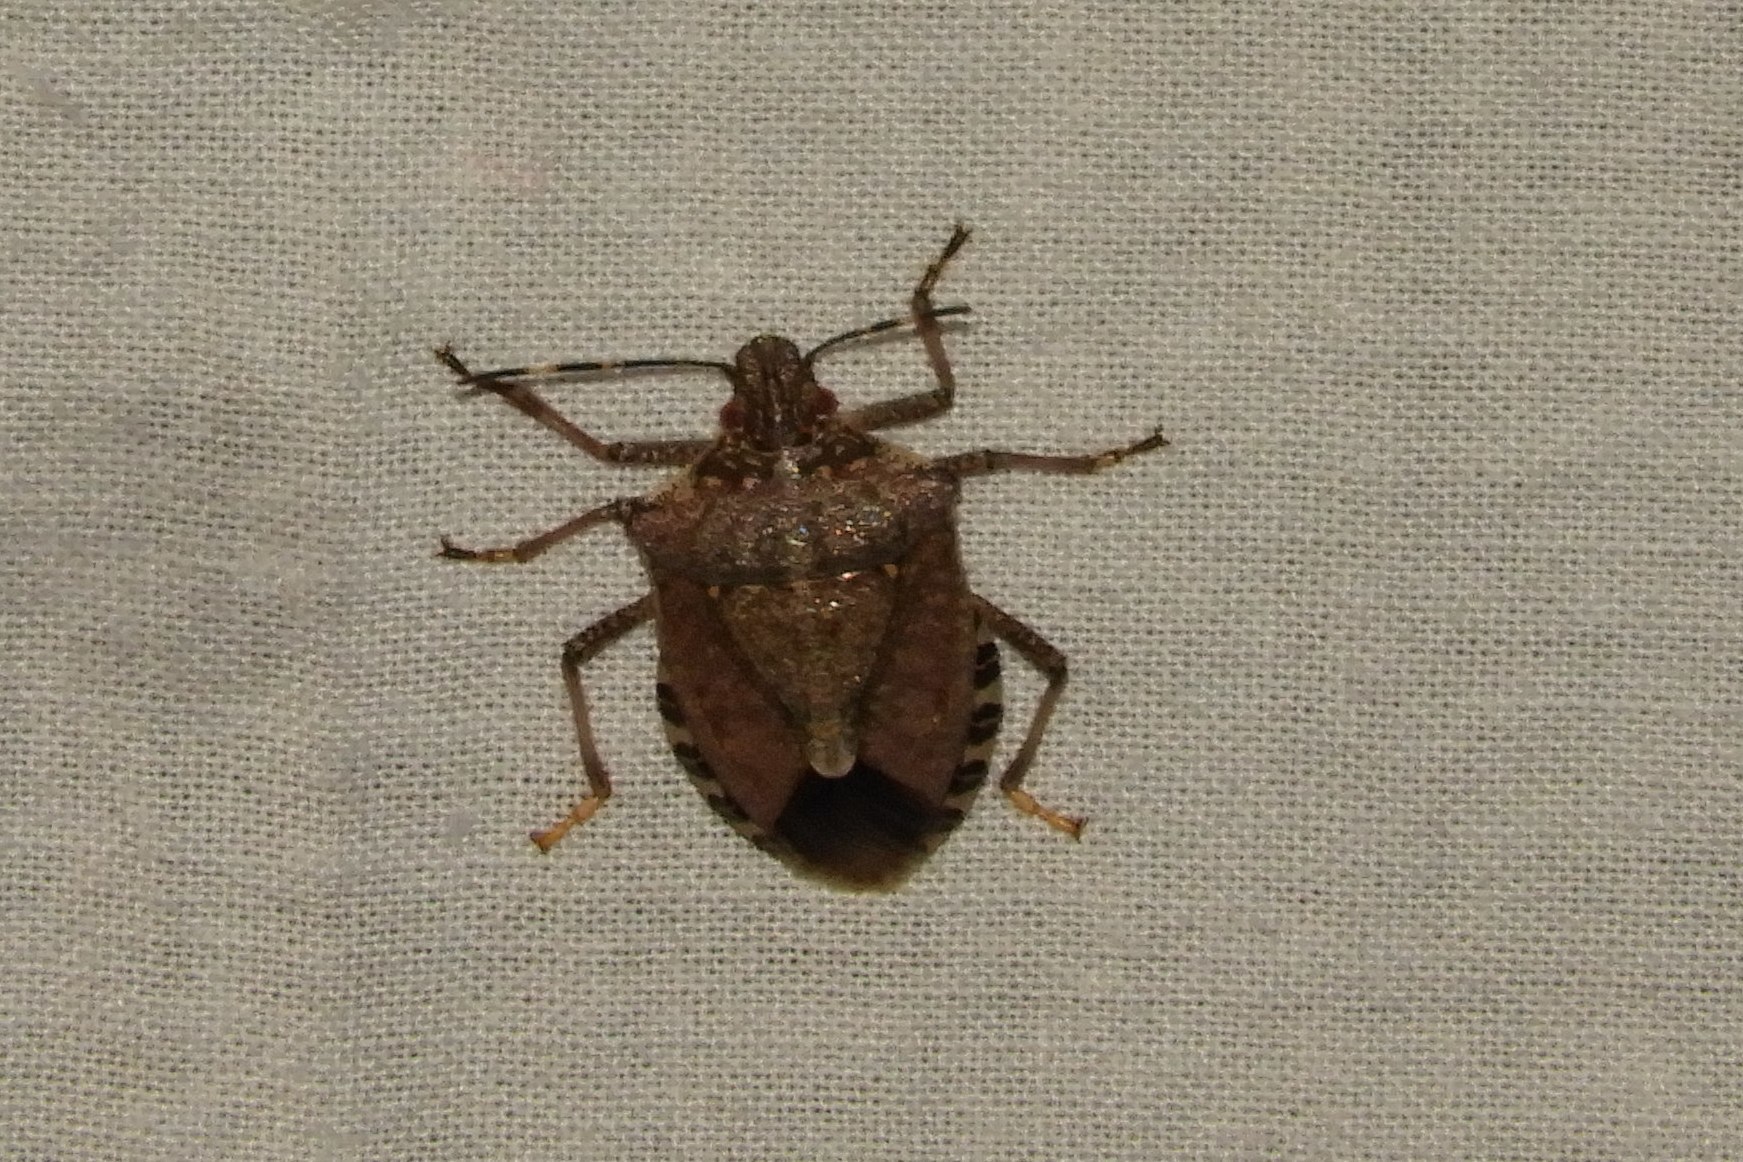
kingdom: Animalia
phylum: Arthropoda
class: Insecta
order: Hemiptera
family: Pentatomidae
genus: Halyomorpha
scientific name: Halyomorpha halys
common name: Brown marmorated stink bug
